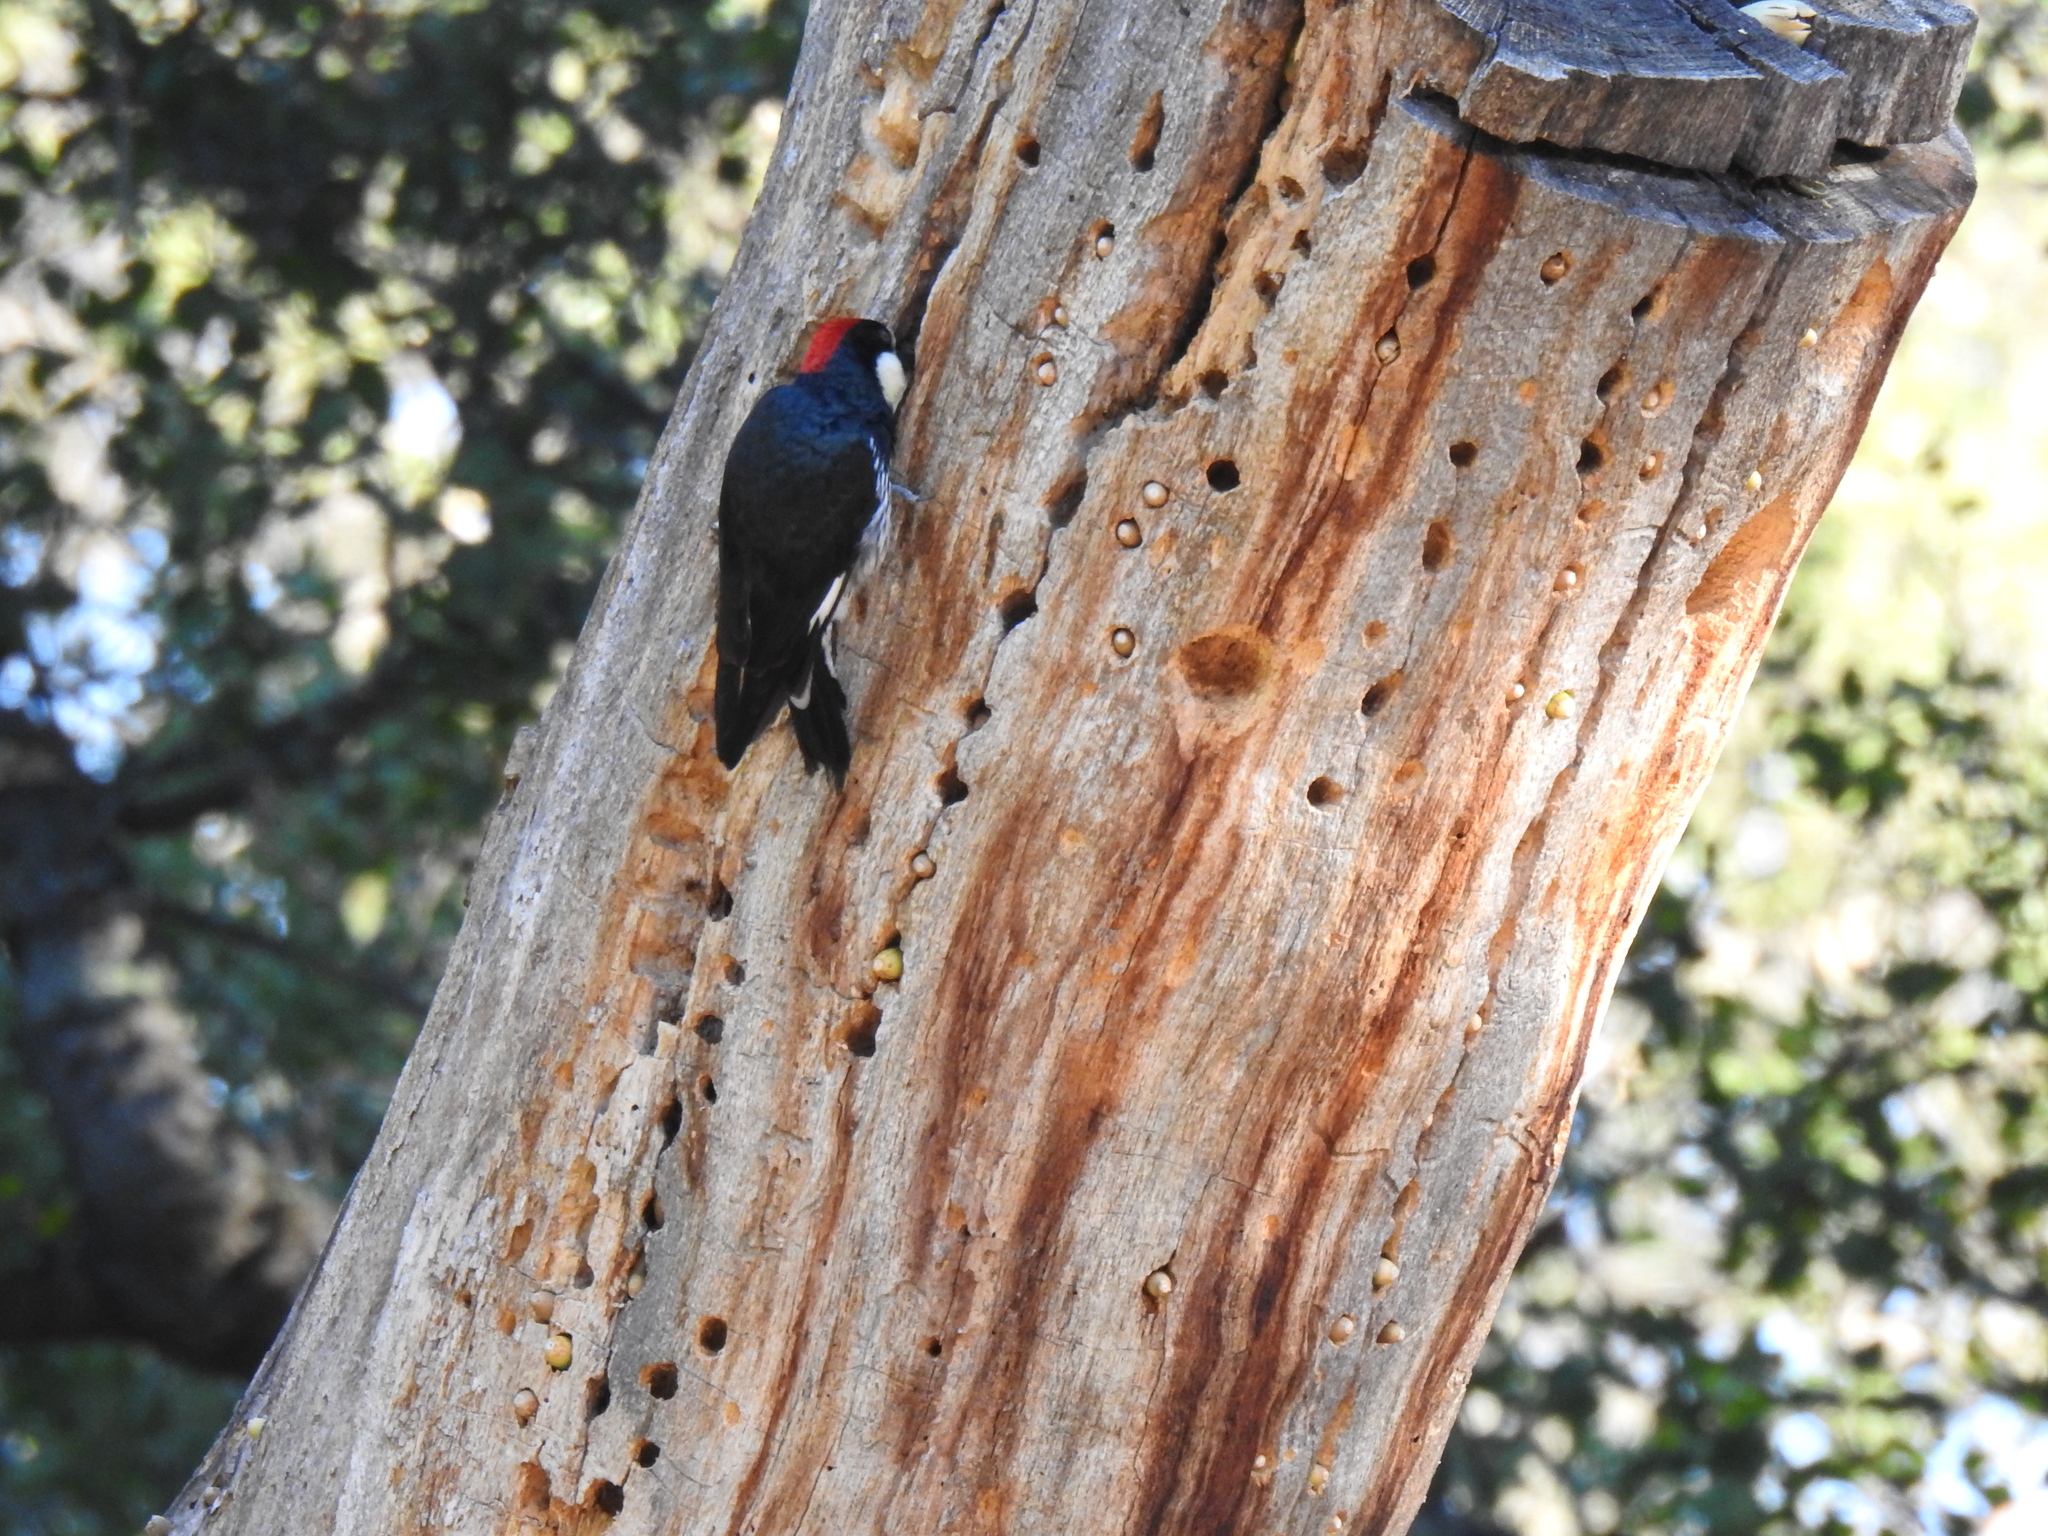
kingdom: Animalia
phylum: Chordata
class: Aves
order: Piciformes
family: Picidae
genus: Melanerpes
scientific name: Melanerpes formicivorus
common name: Acorn woodpecker
